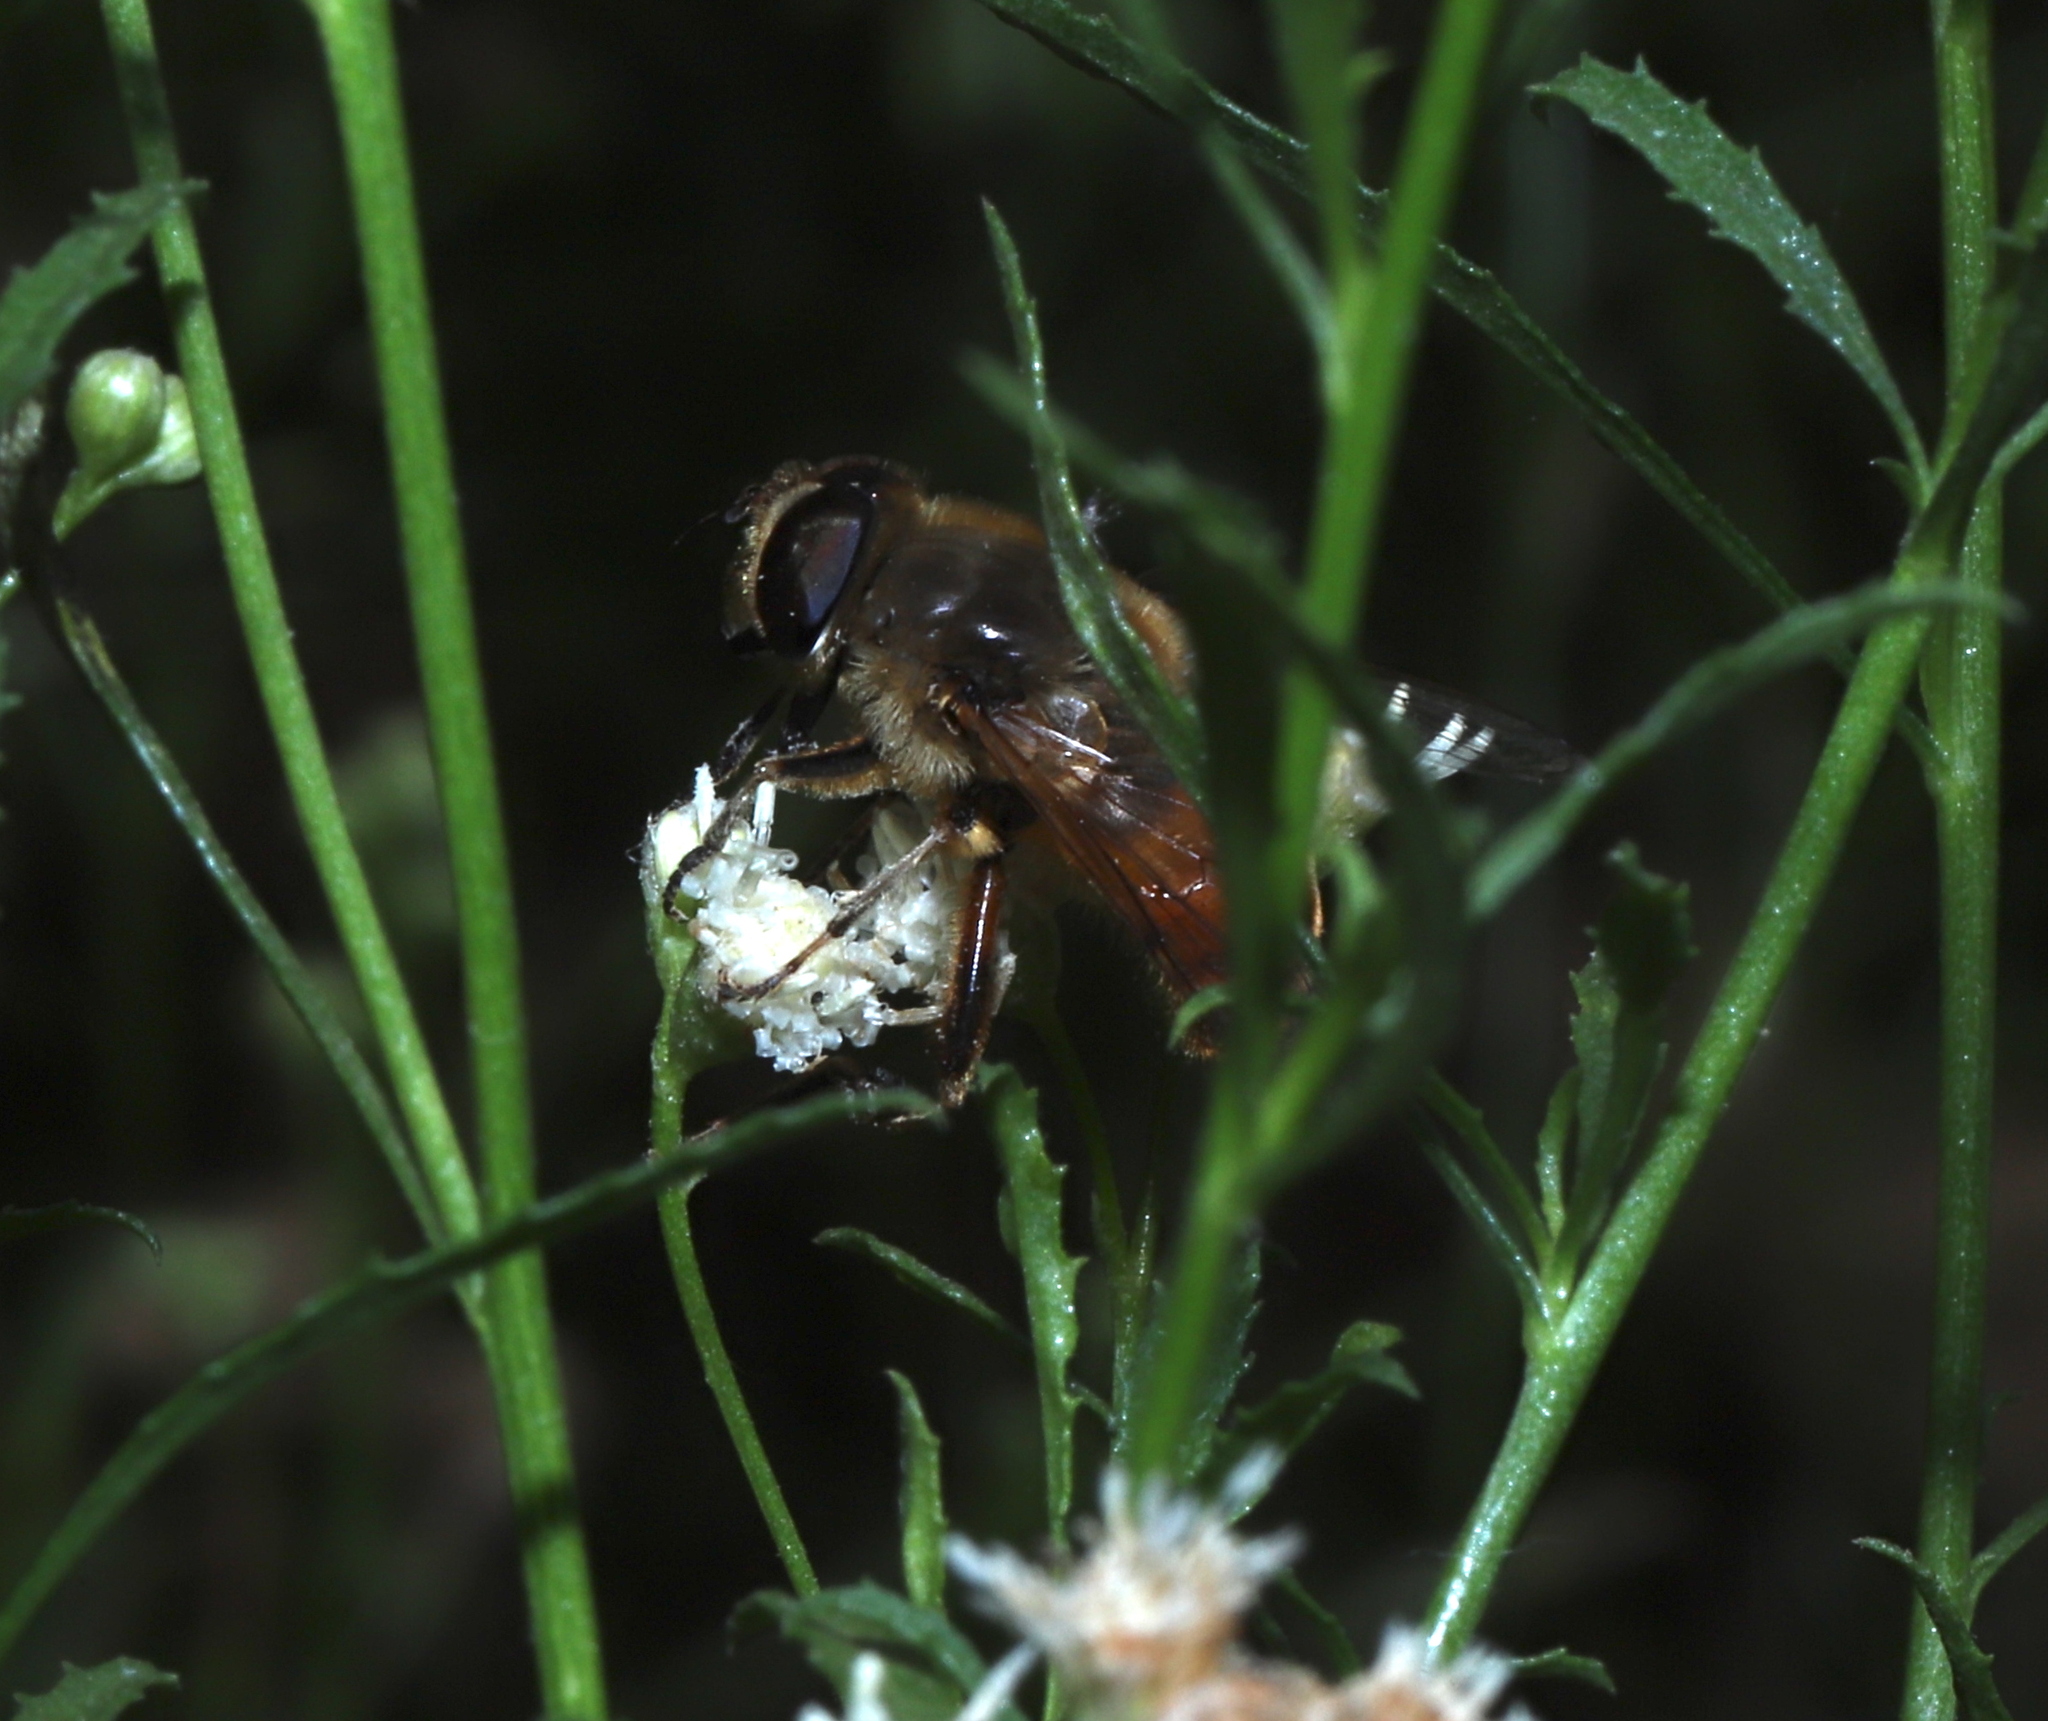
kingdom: Animalia
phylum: Arthropoda
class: Insecta
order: Diptera
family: Syrphidae
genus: Eristalis
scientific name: Eristalis tenax
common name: Drone fly
